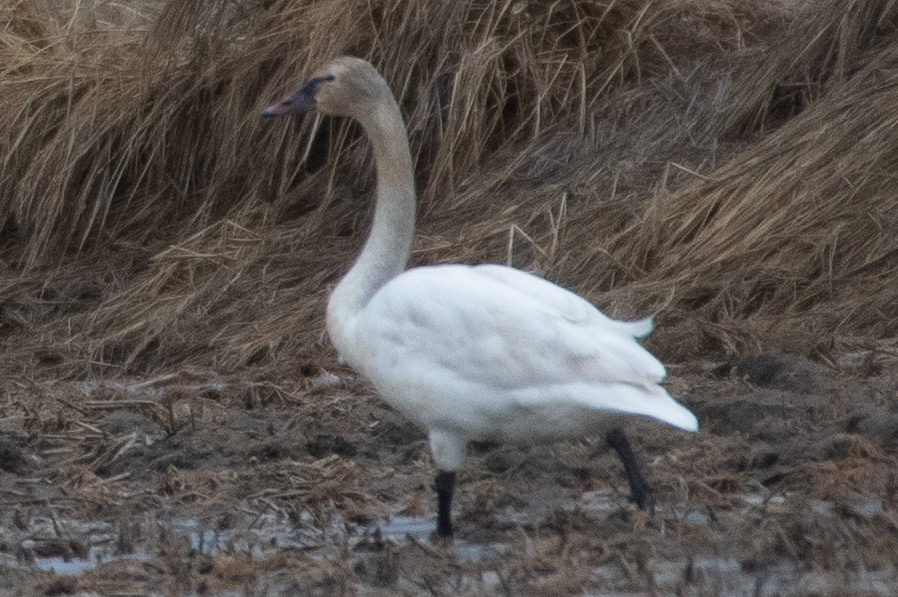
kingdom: Animalia
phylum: Chordata
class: Aves
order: Anseriformes
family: Anatidae
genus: Cygnus
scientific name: Cygnus columbianus
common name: Tundra swan
